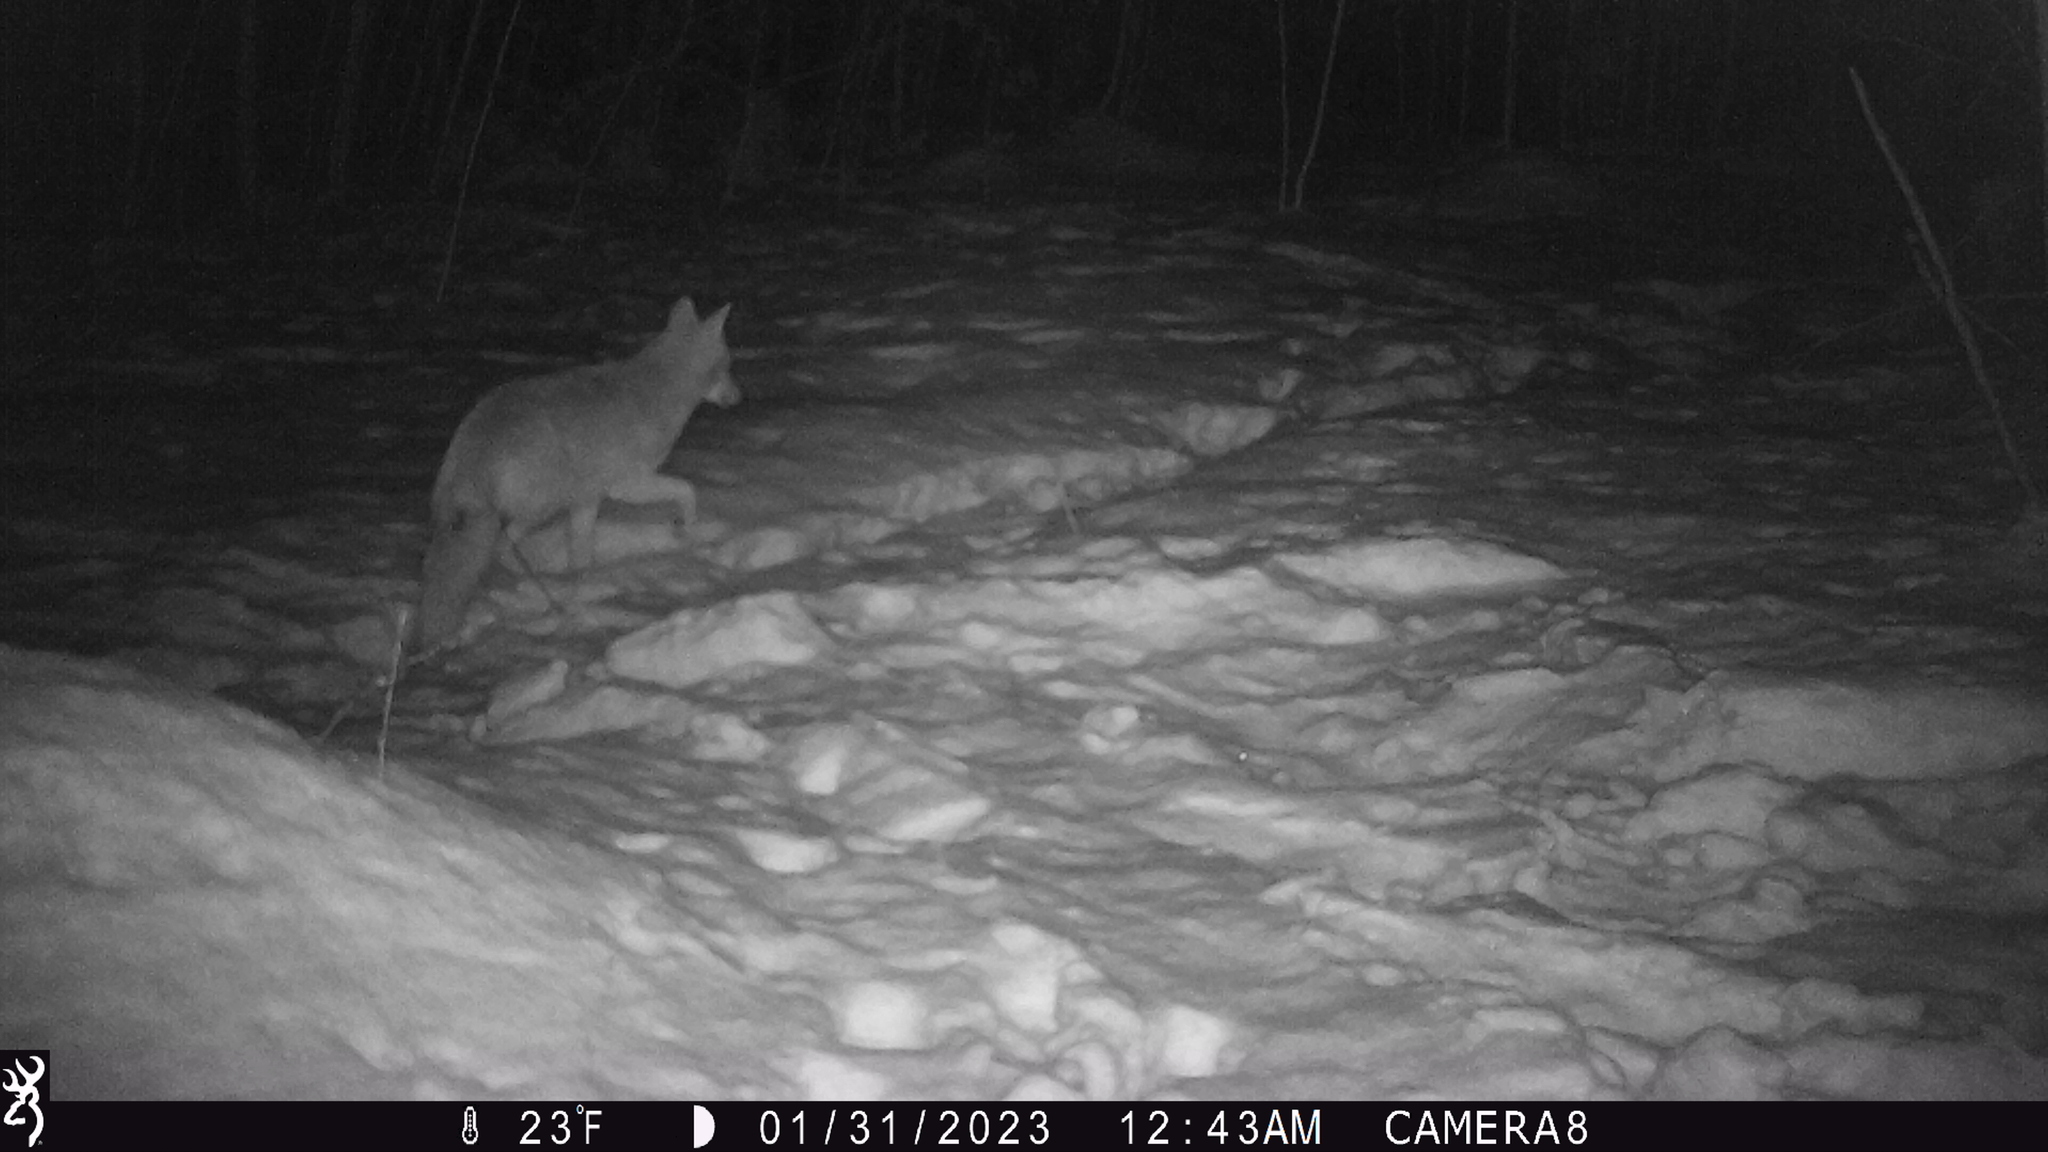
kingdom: Animalia
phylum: Chordata
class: Mammalia
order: Carnivora
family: Canidae
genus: Canis
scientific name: Canis latrans
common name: Coyote
